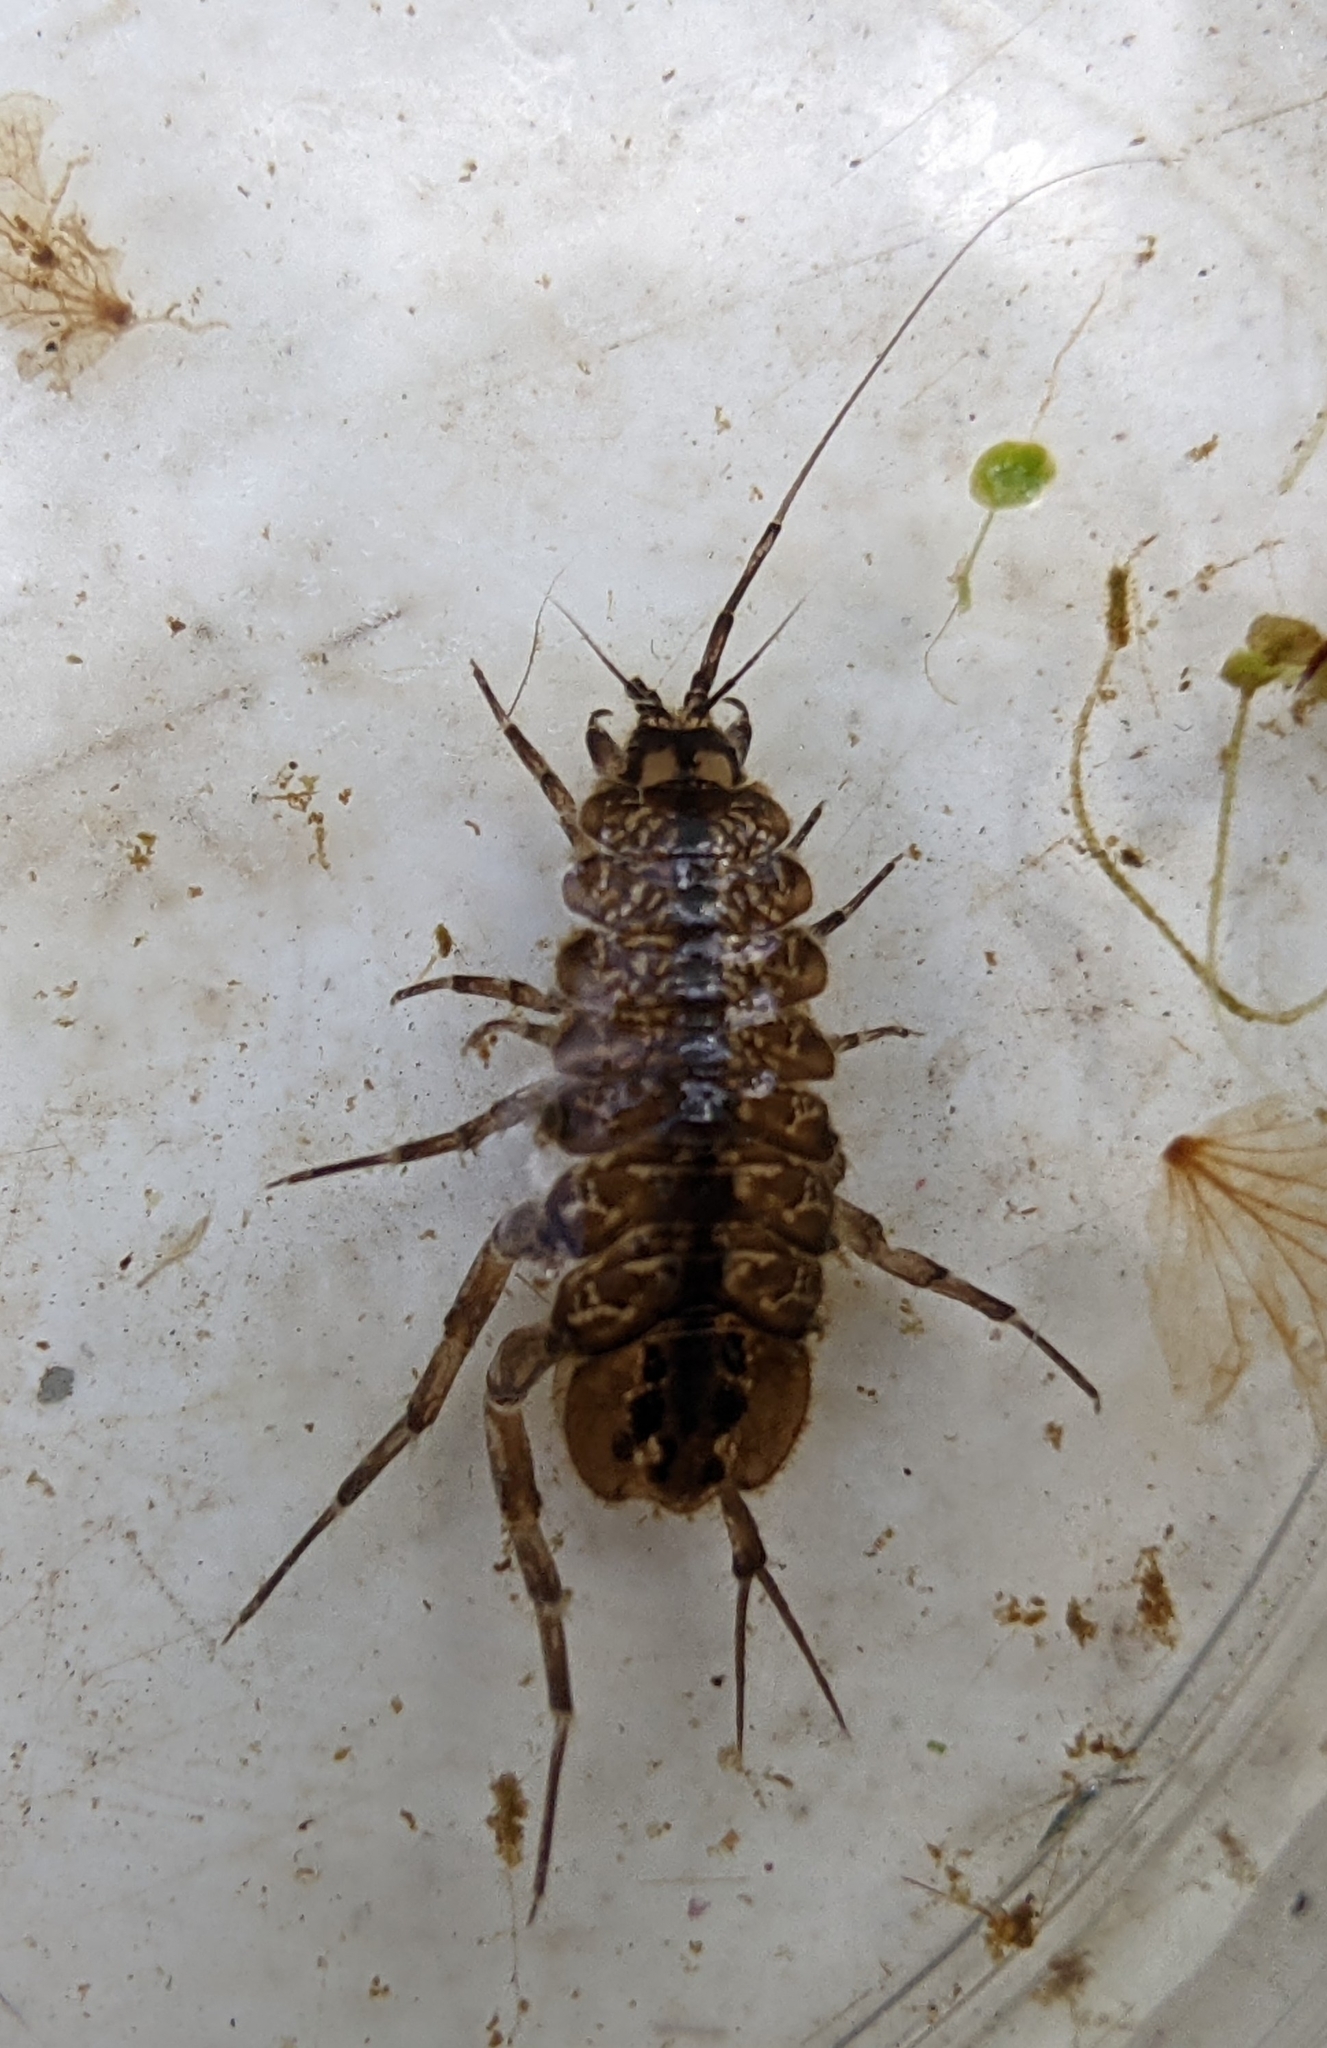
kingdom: Animalia
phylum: Arthropoda
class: Malacostraca
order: Isopoda
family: Asellidae
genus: Asellus
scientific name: Asellus aquaticus
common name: Water hog lice/slaters
